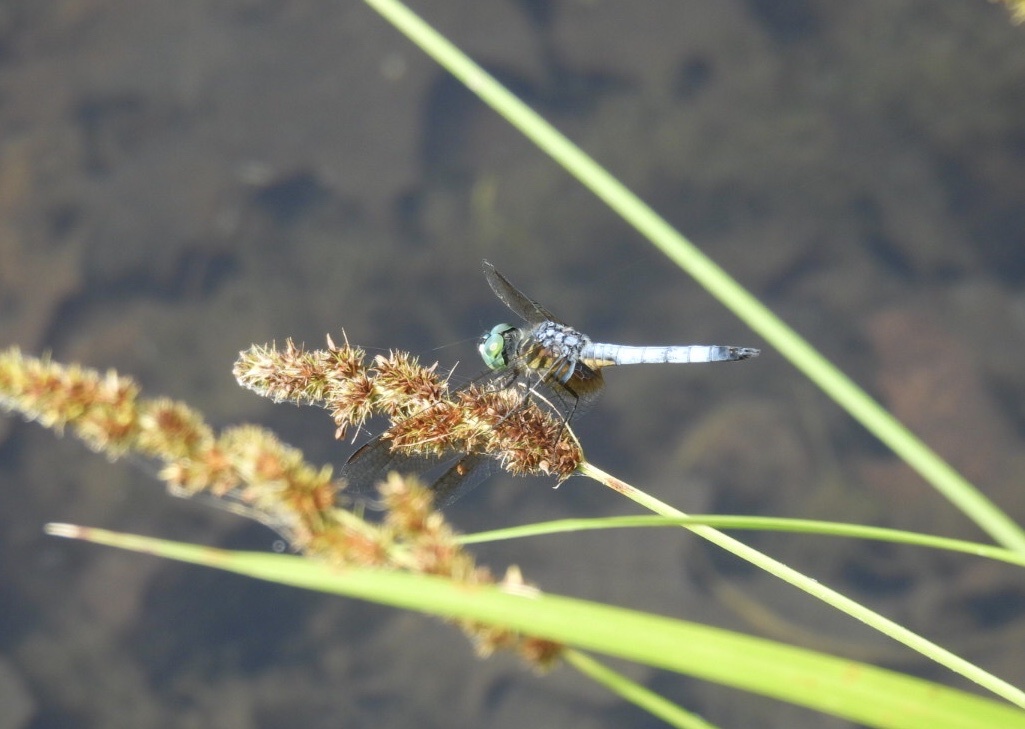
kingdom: Animalia
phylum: Arthropoda
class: Insecta
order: Odonata
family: Libellulidae
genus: Pachydiplax
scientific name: Pachydiplax longipennis
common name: Blue dasher
